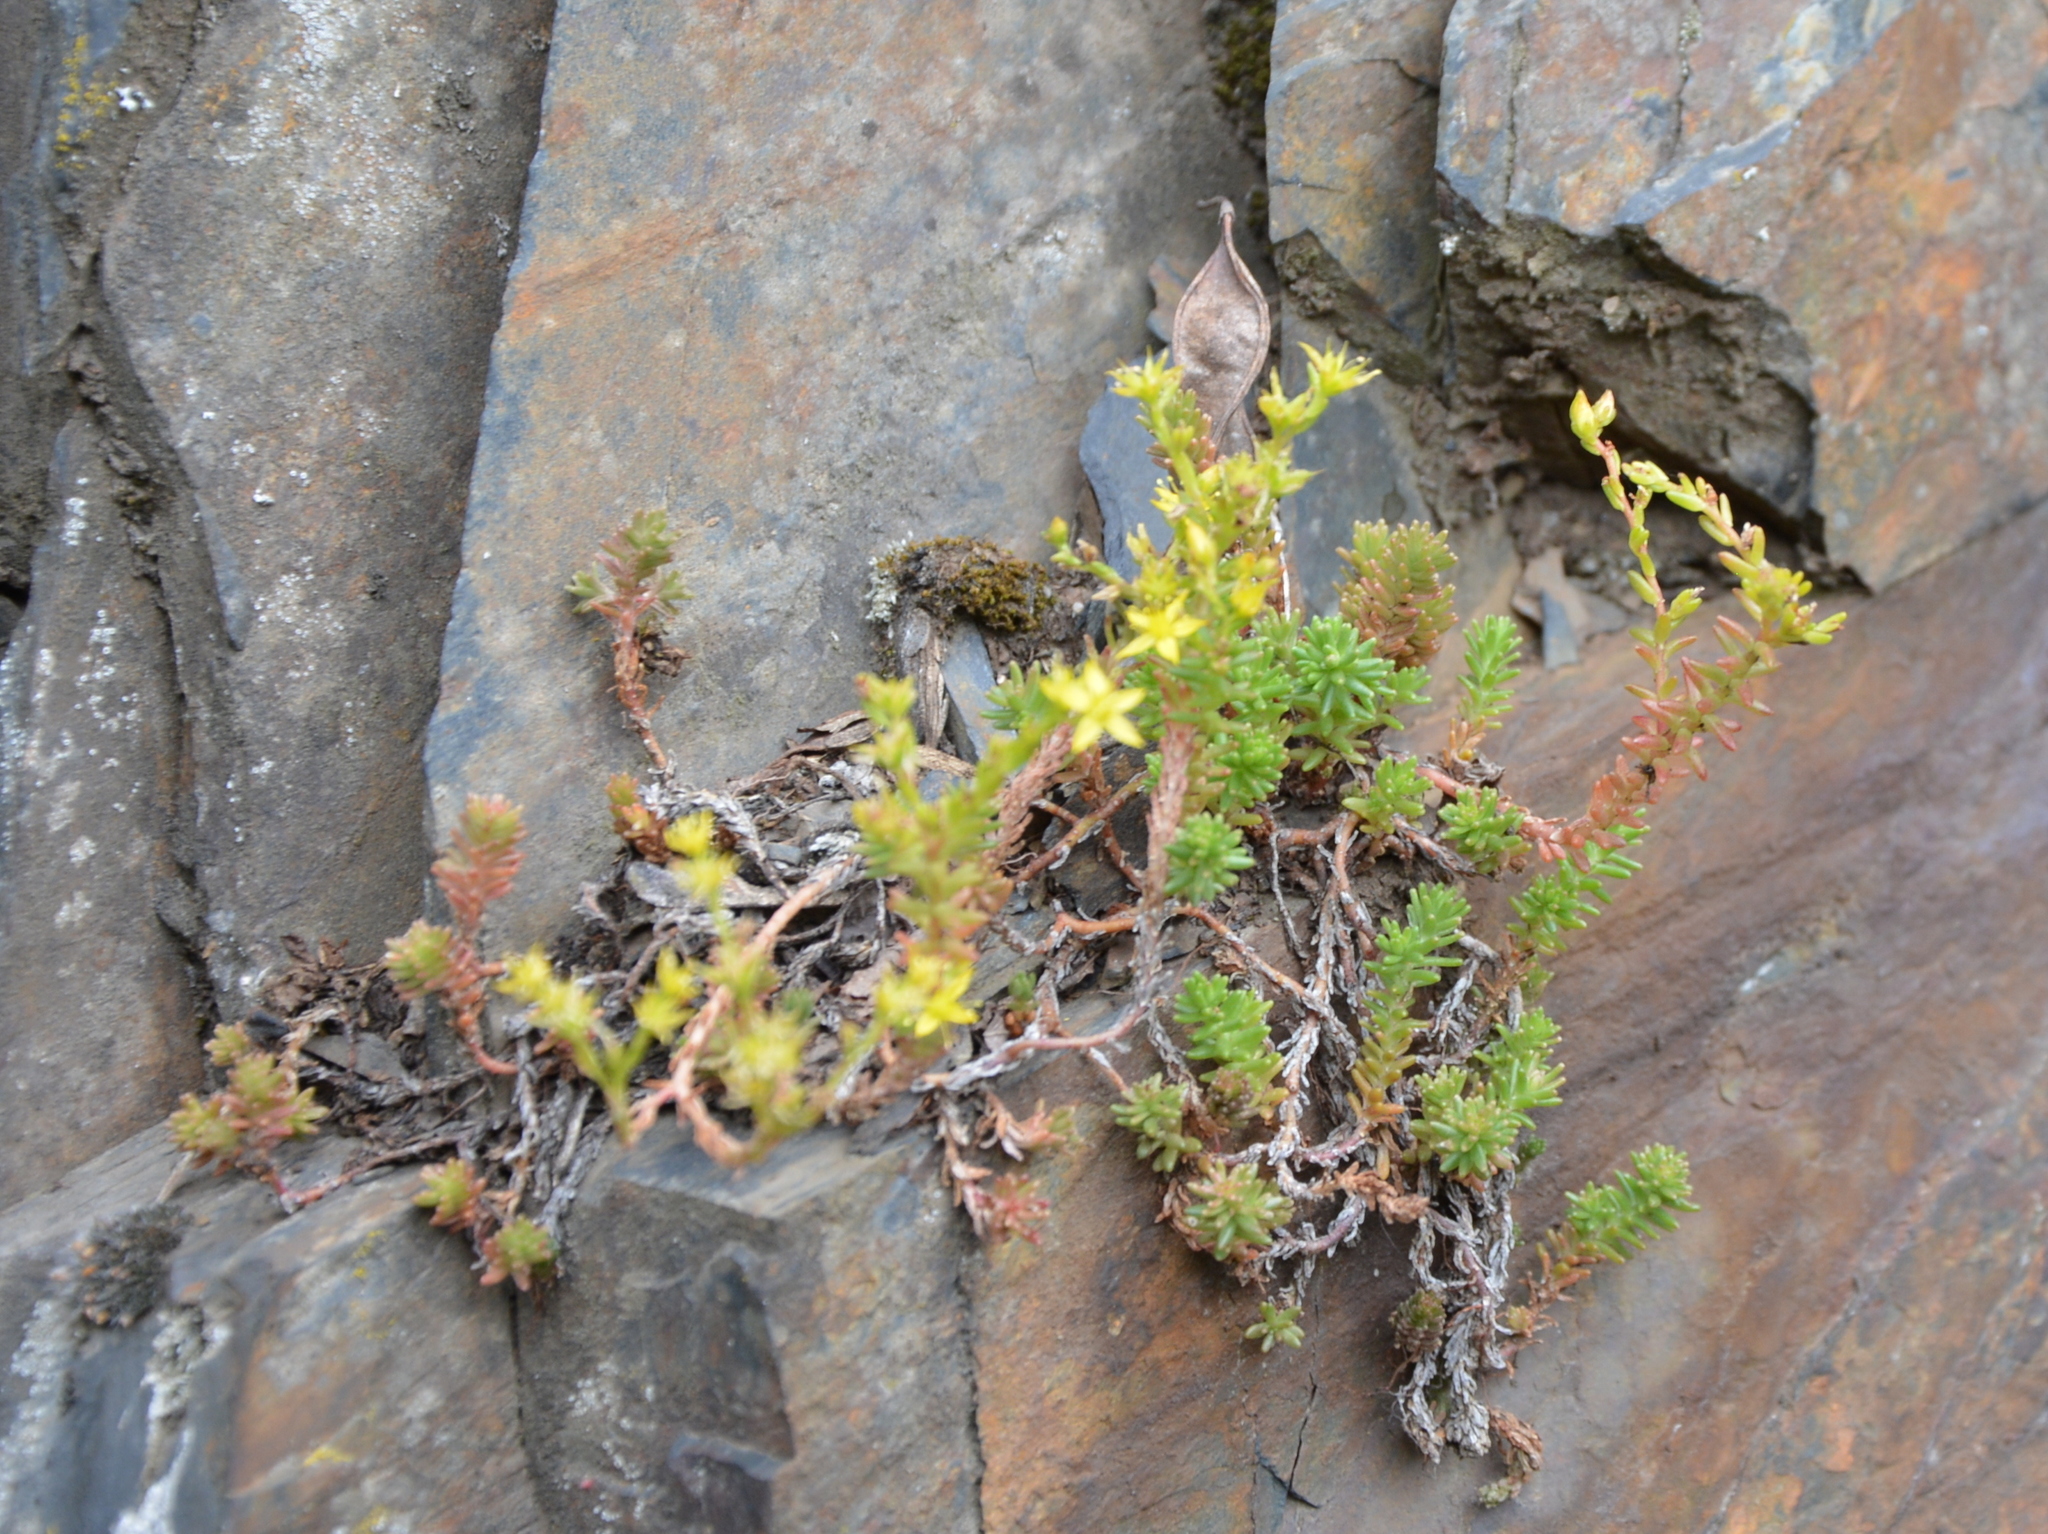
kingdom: Plantae
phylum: Tracheophyta
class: Magnoliopsida
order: Saxifragales
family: Crassulaceae
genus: Sedum
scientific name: Sedum sexangulare
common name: Tasteless stonecrop
